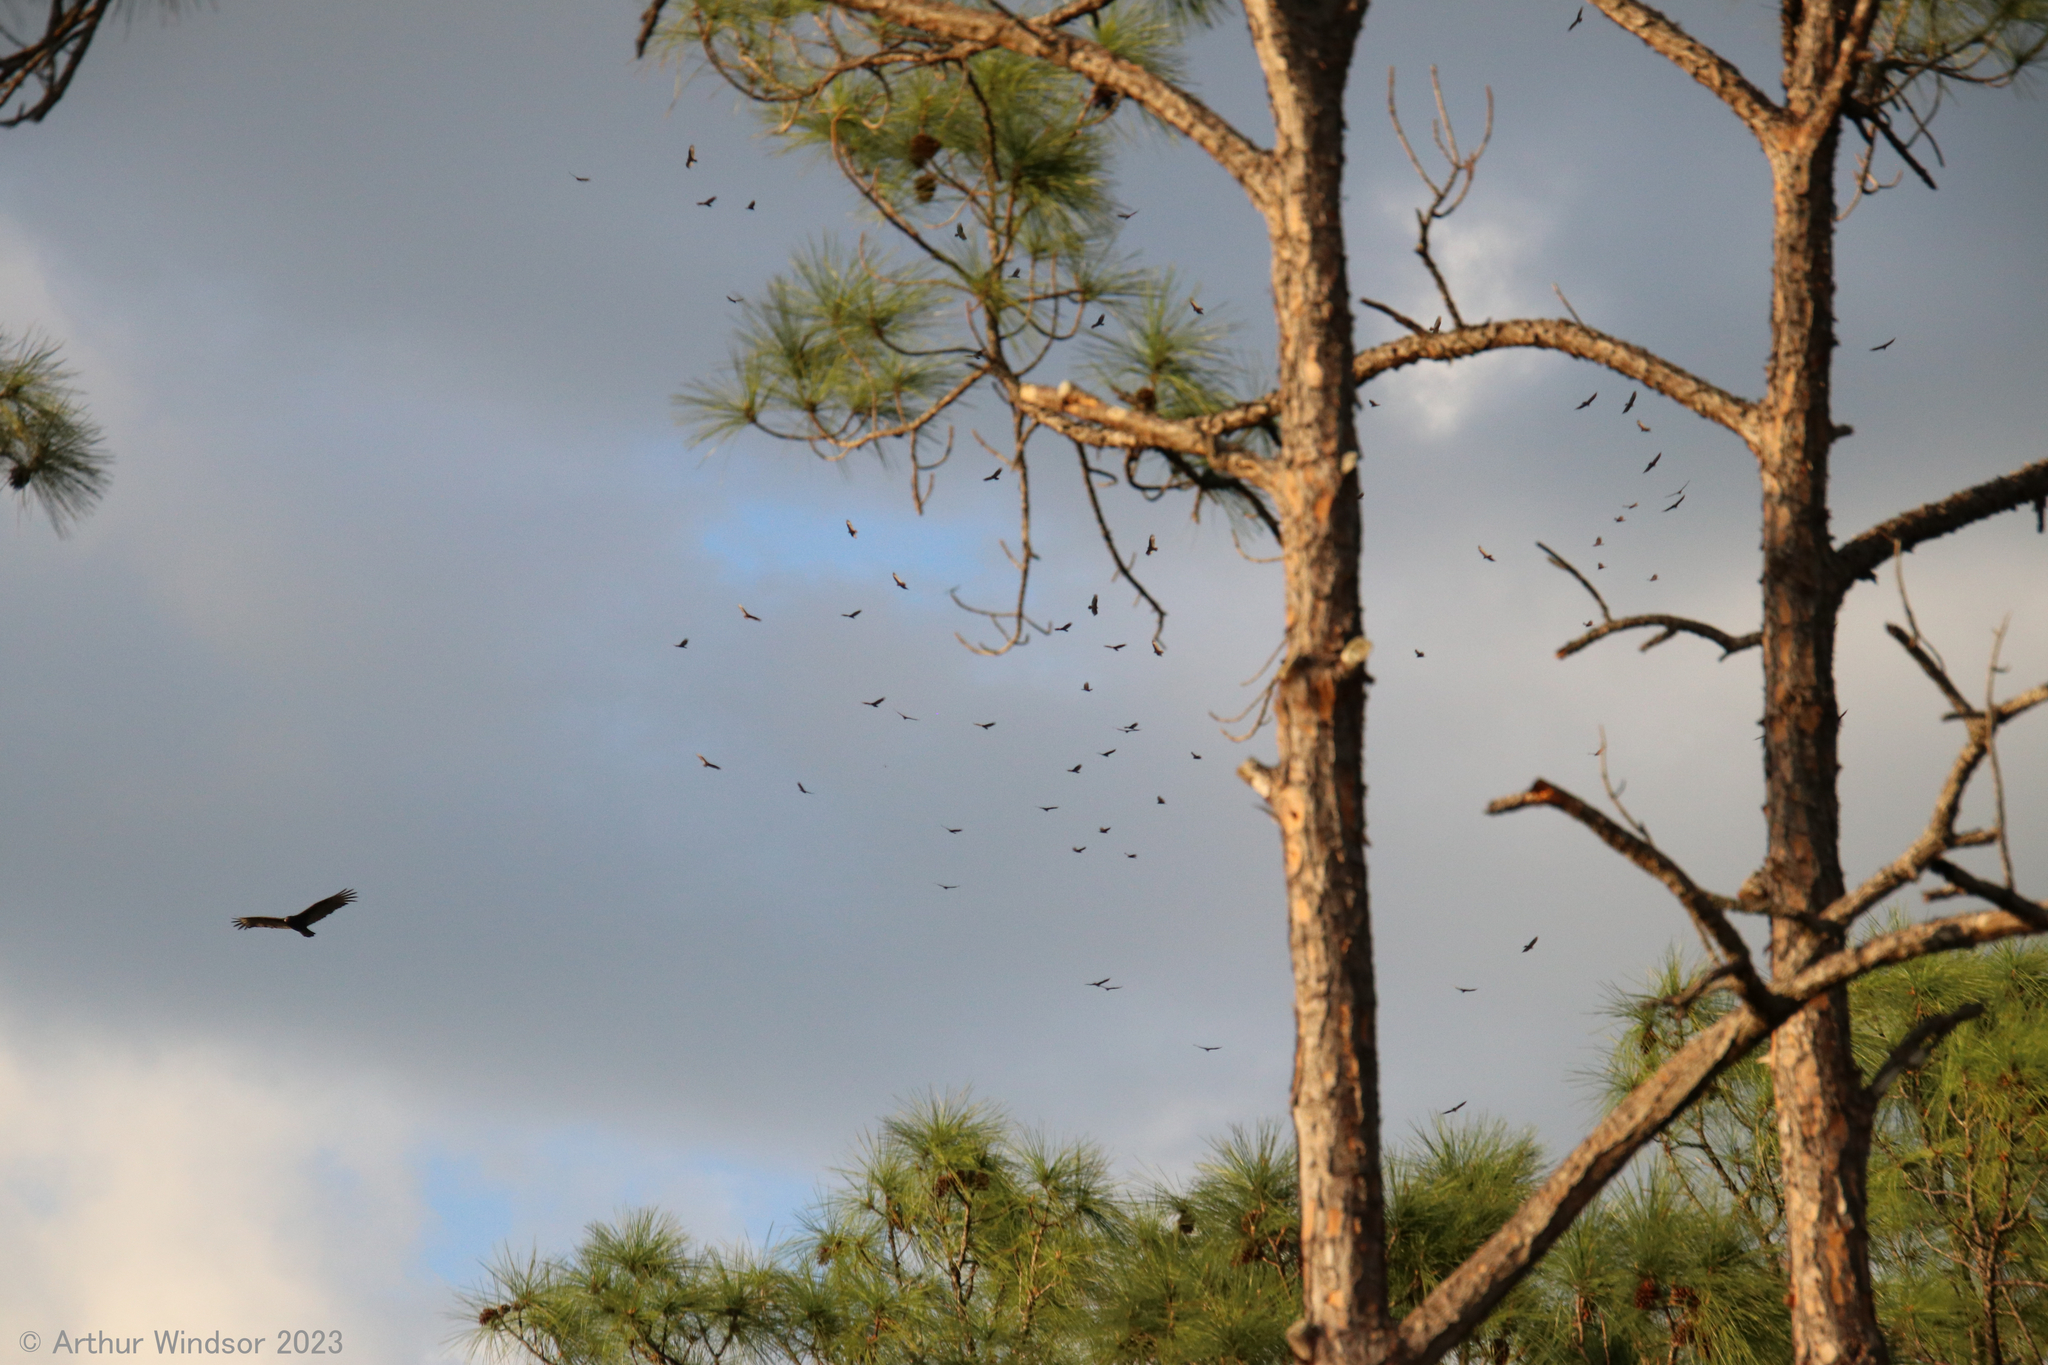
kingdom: Animalia
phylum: Chordata
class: Aves
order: Accipitriformes
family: Cathartidae
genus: Cathartes
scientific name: Cathartes aura
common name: Turkey vulture
